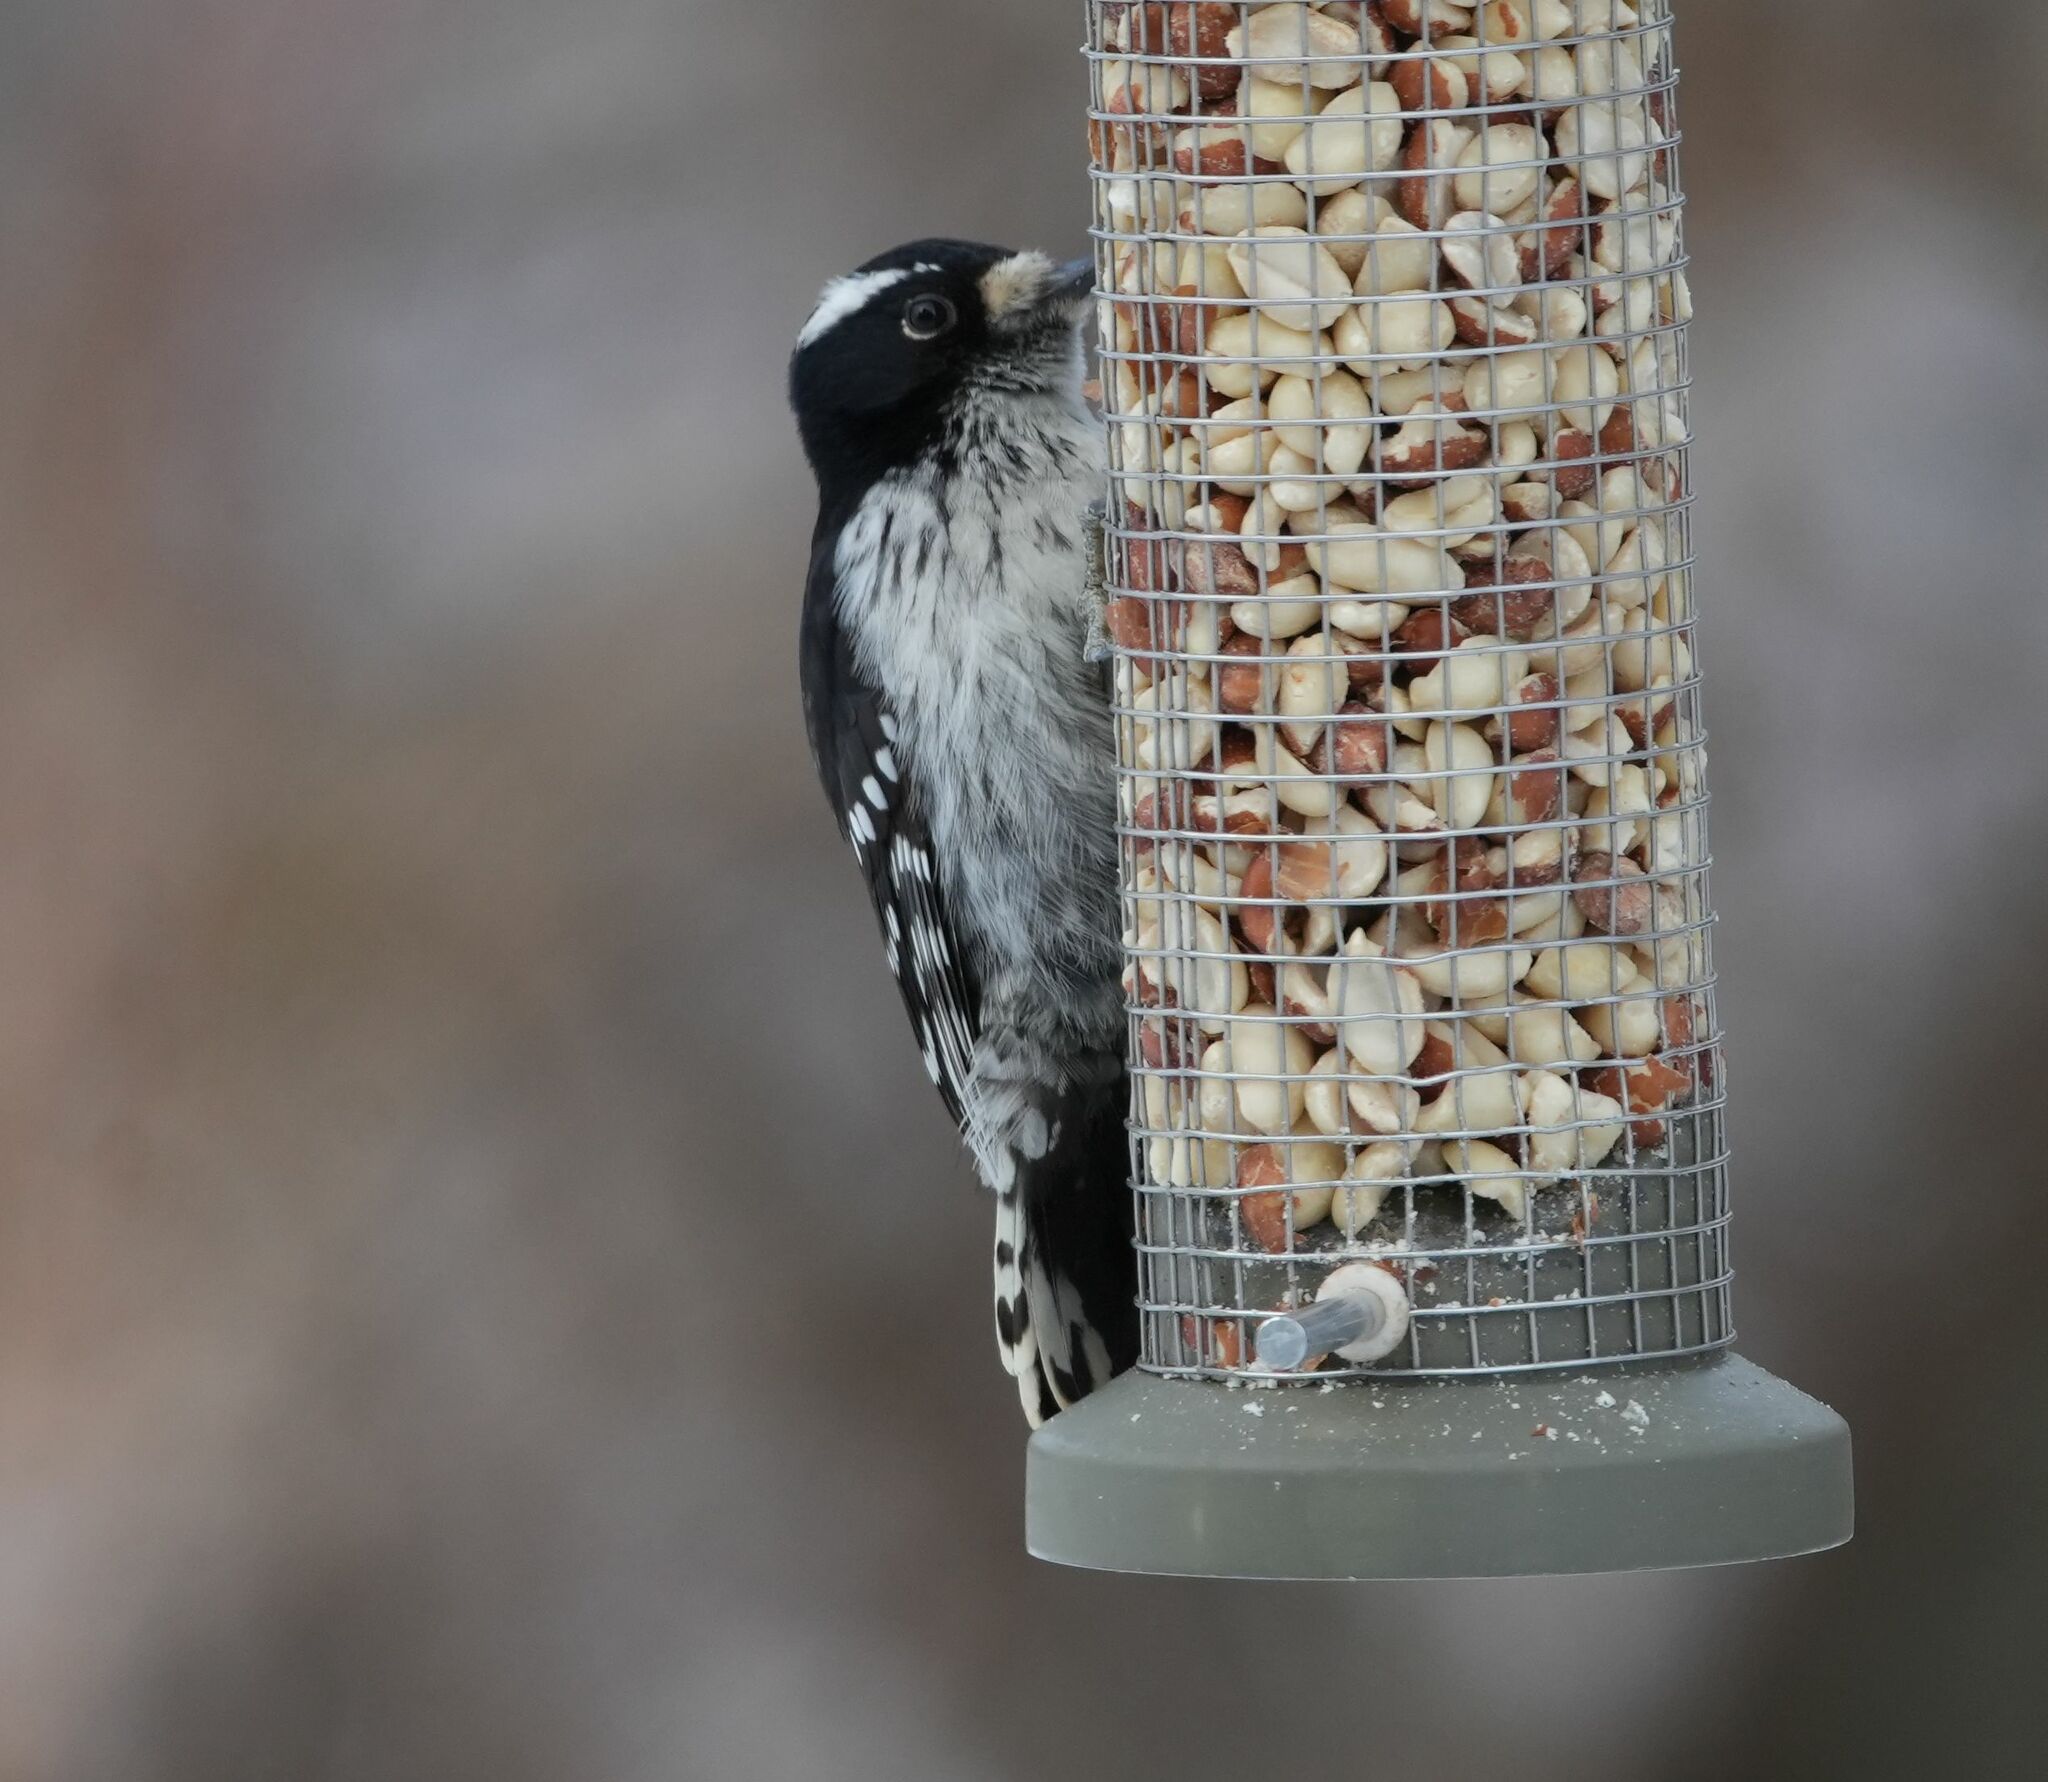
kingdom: Animalia
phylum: Chordata
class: Aves
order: Piciformes
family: Picidae
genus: Dryobates
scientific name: Dryobates pubescens
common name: Downy woodpecker
